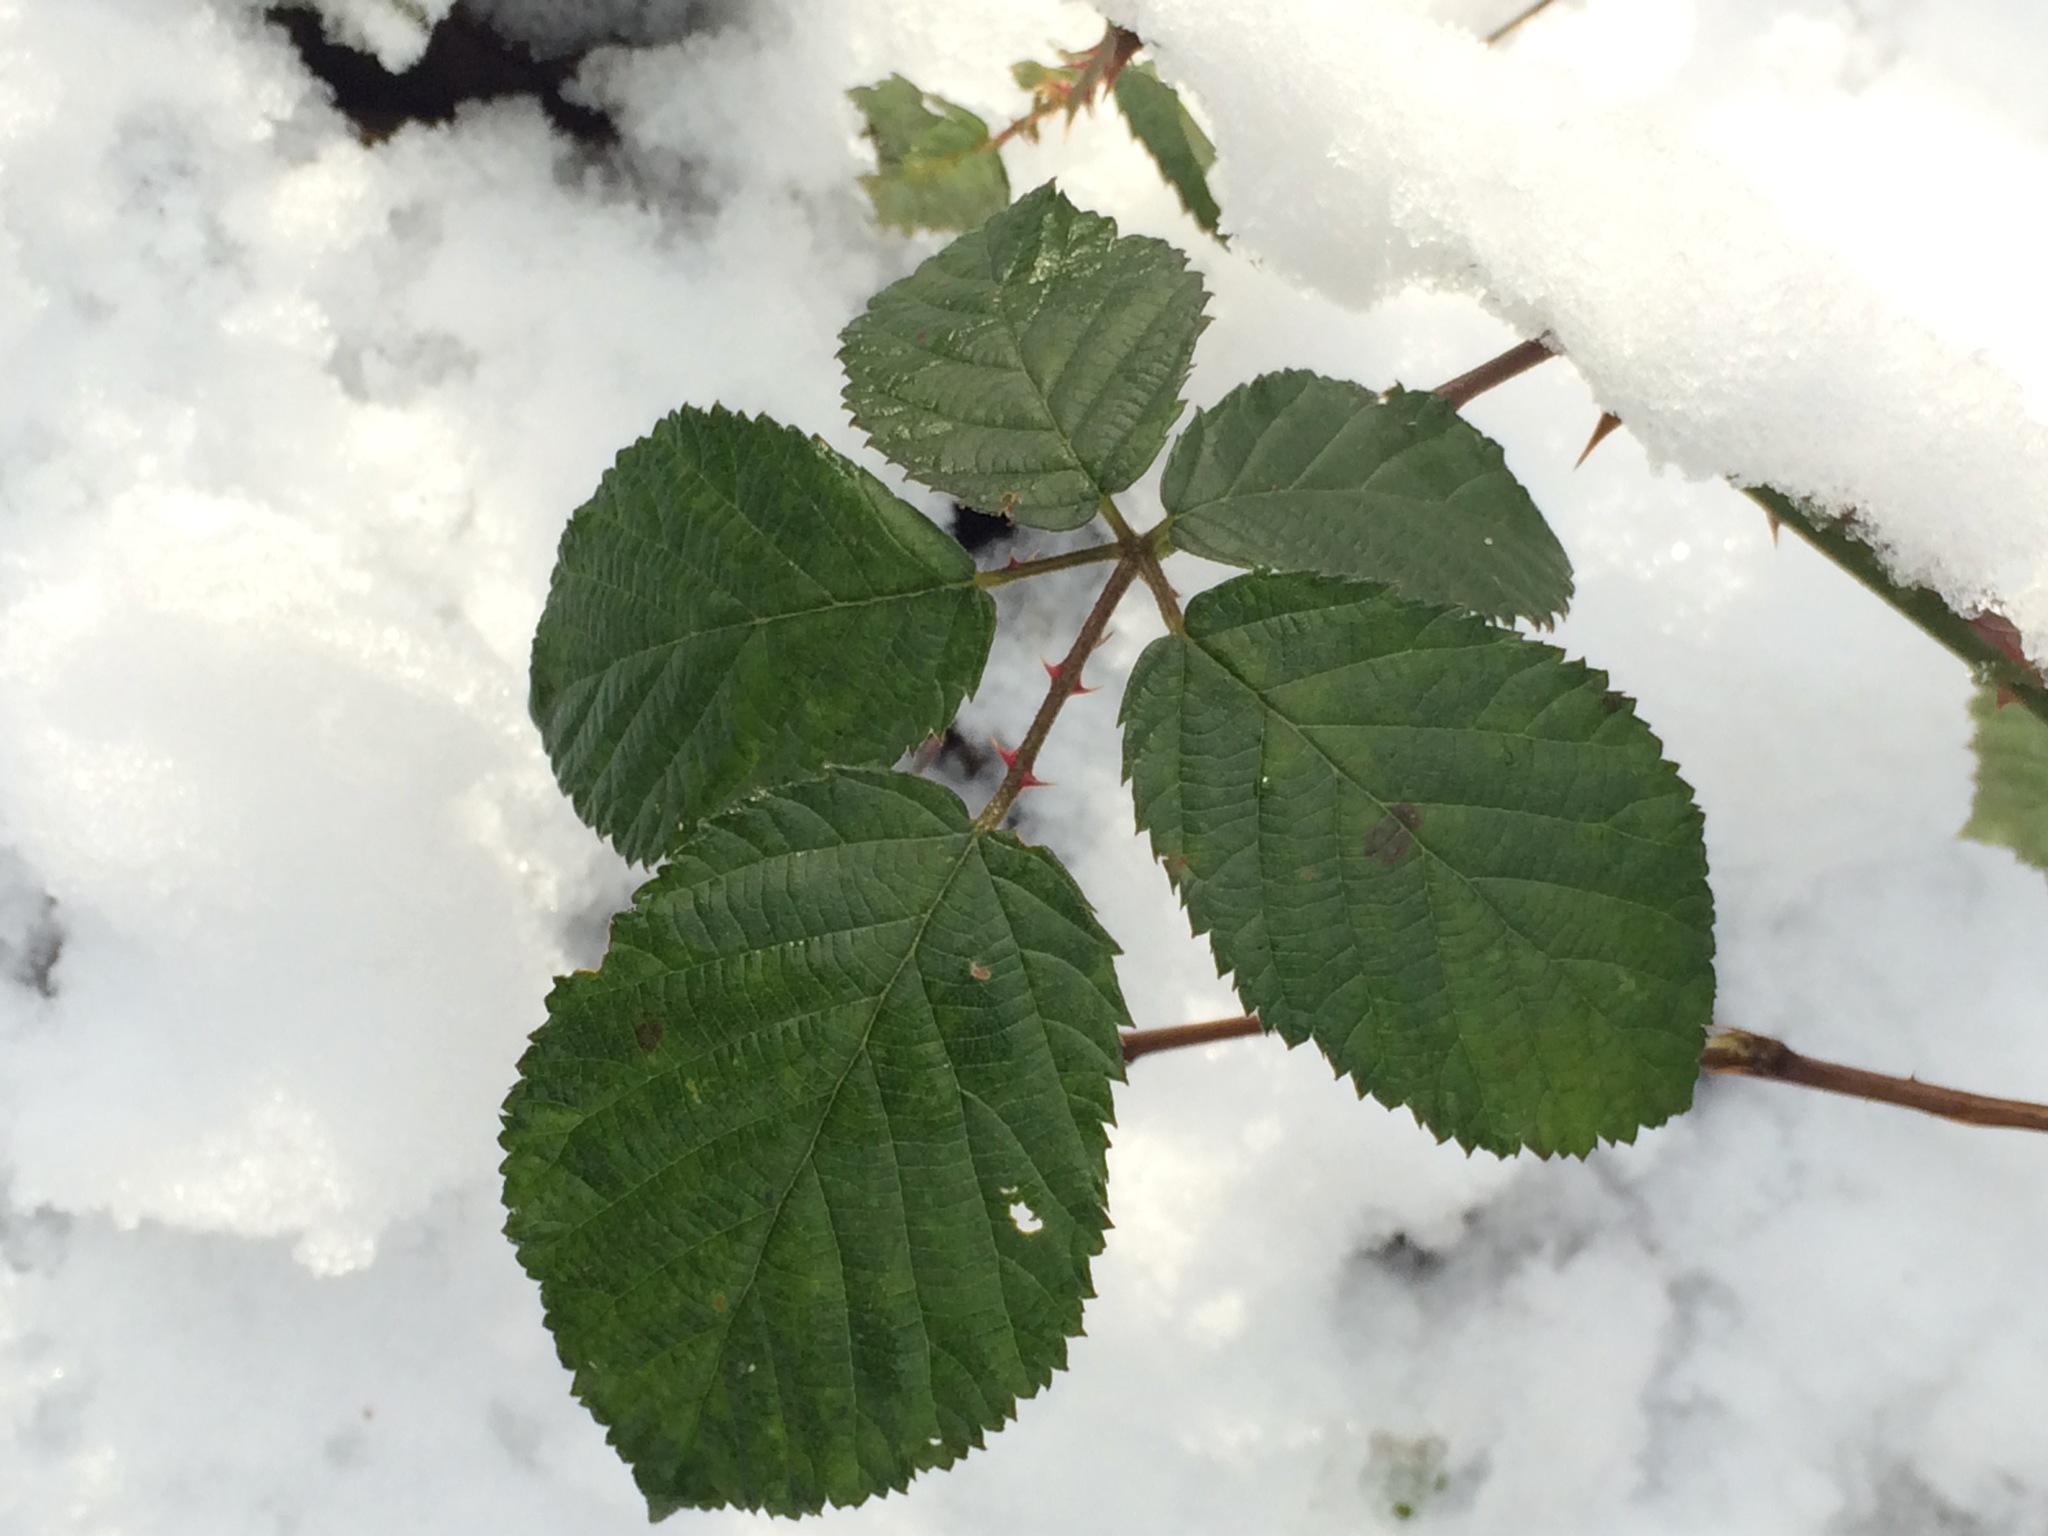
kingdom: Plantae
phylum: Tracheophyta
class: Magnoliopsida
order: Rosales
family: Rosaceae
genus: Rubus
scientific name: Rubus bifrons
